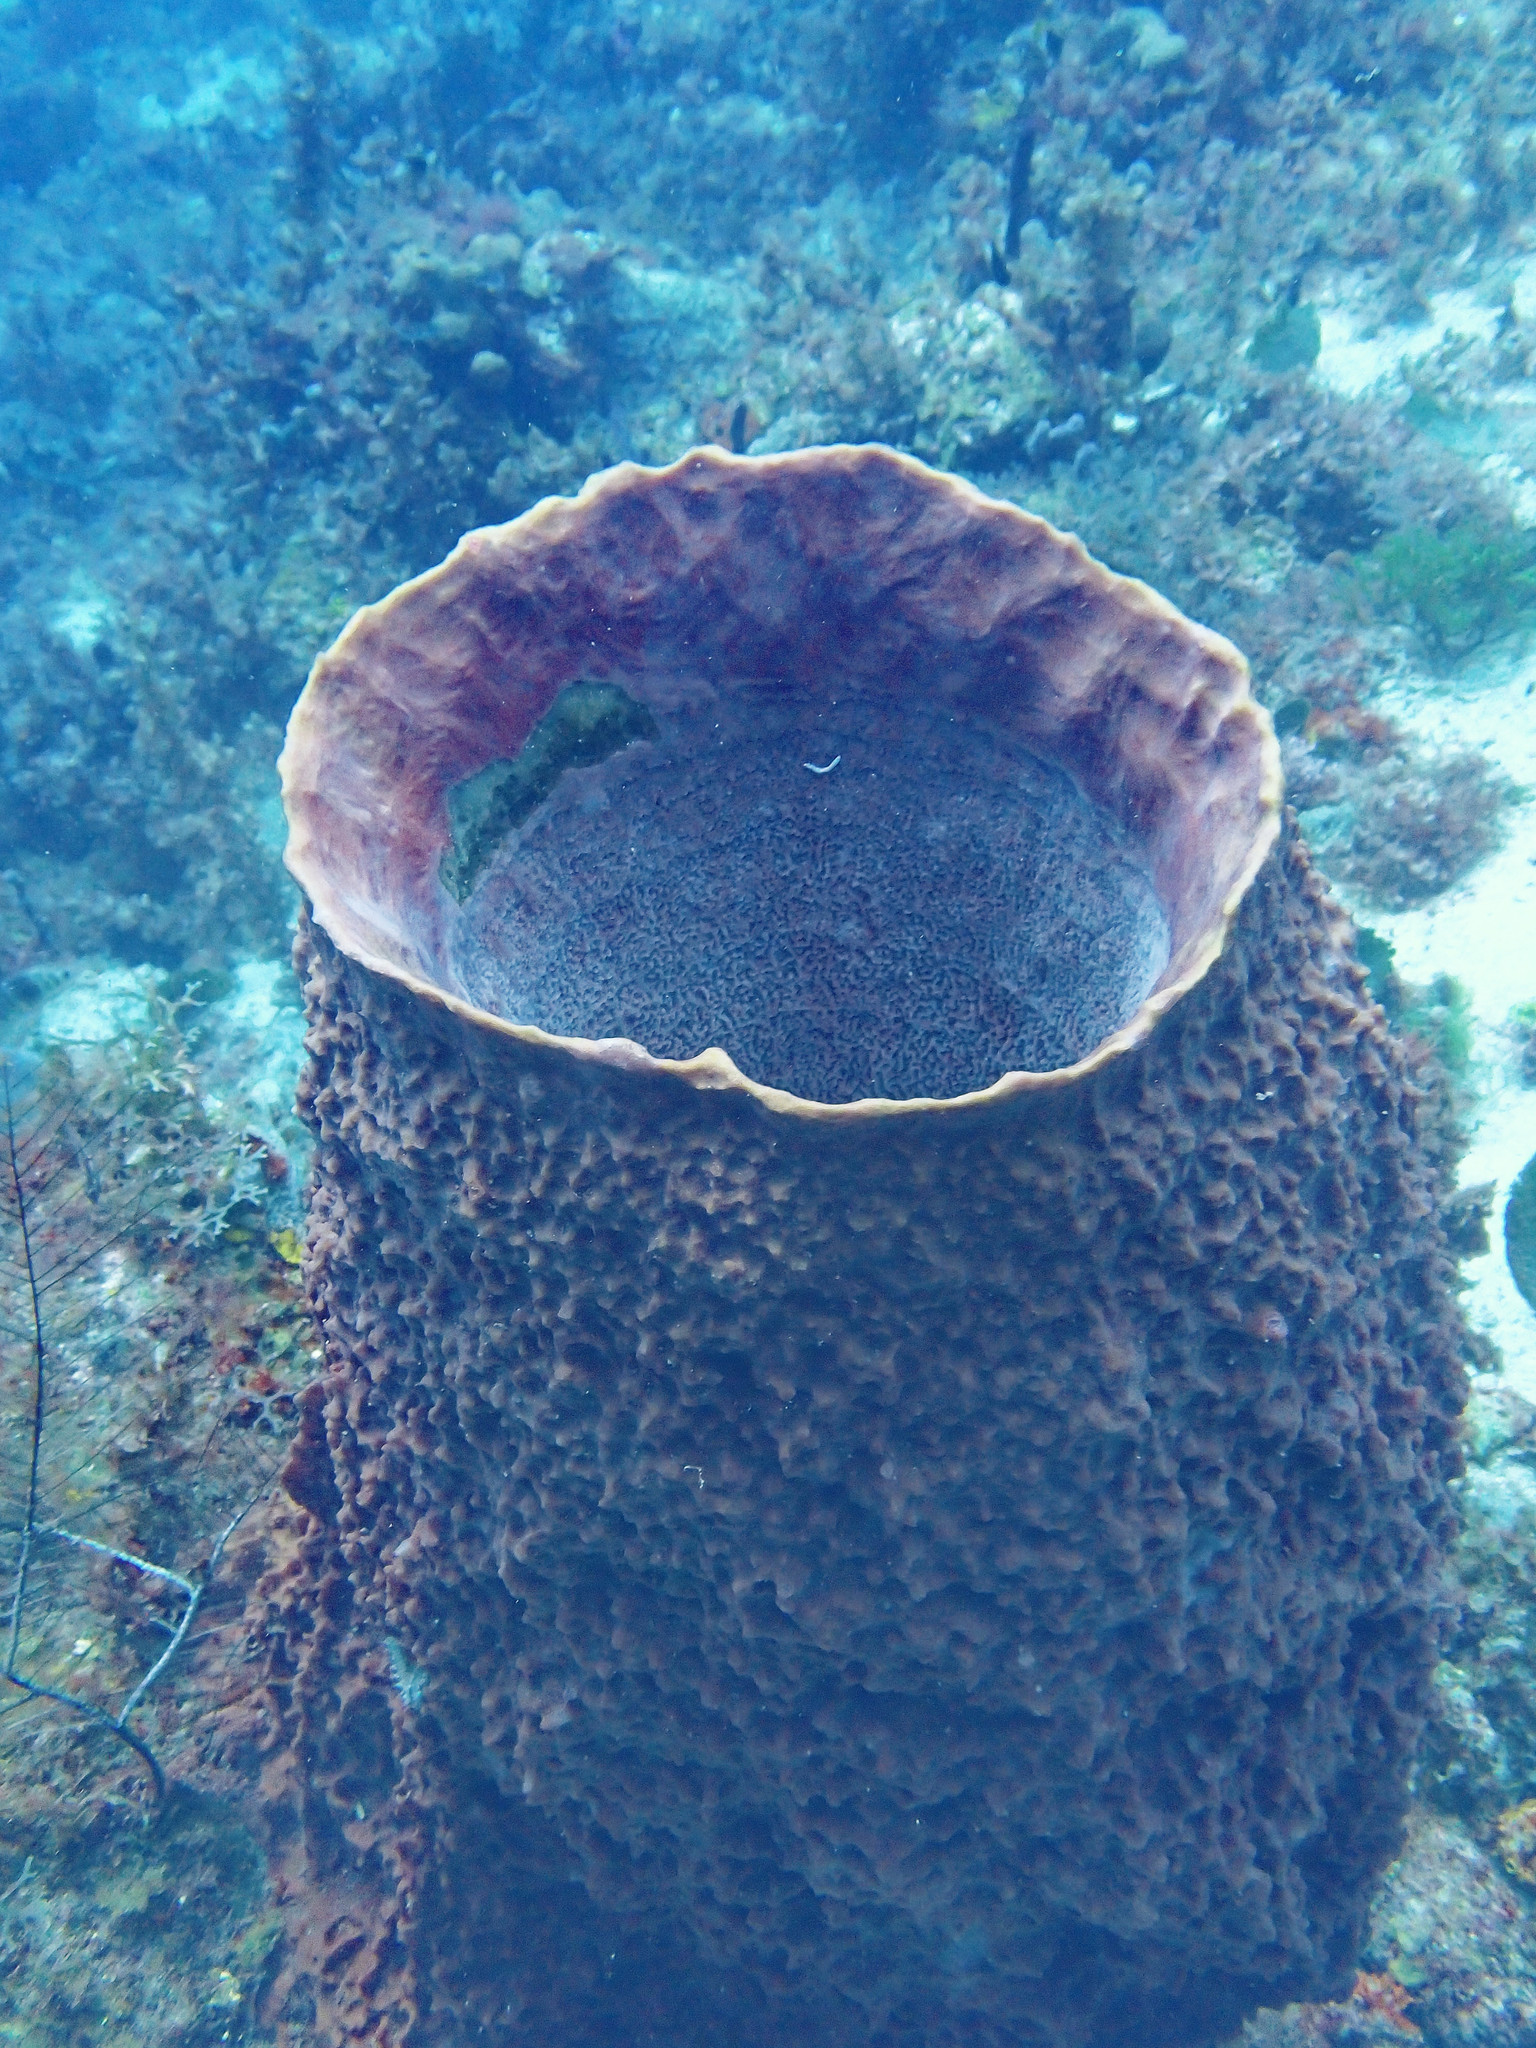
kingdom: Animalia
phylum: Porifera
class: Demospongiae
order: Haplosclerida
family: Petrosiidae
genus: Xestospongia
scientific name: Xestospongia muta
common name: Giant barrel sponge
